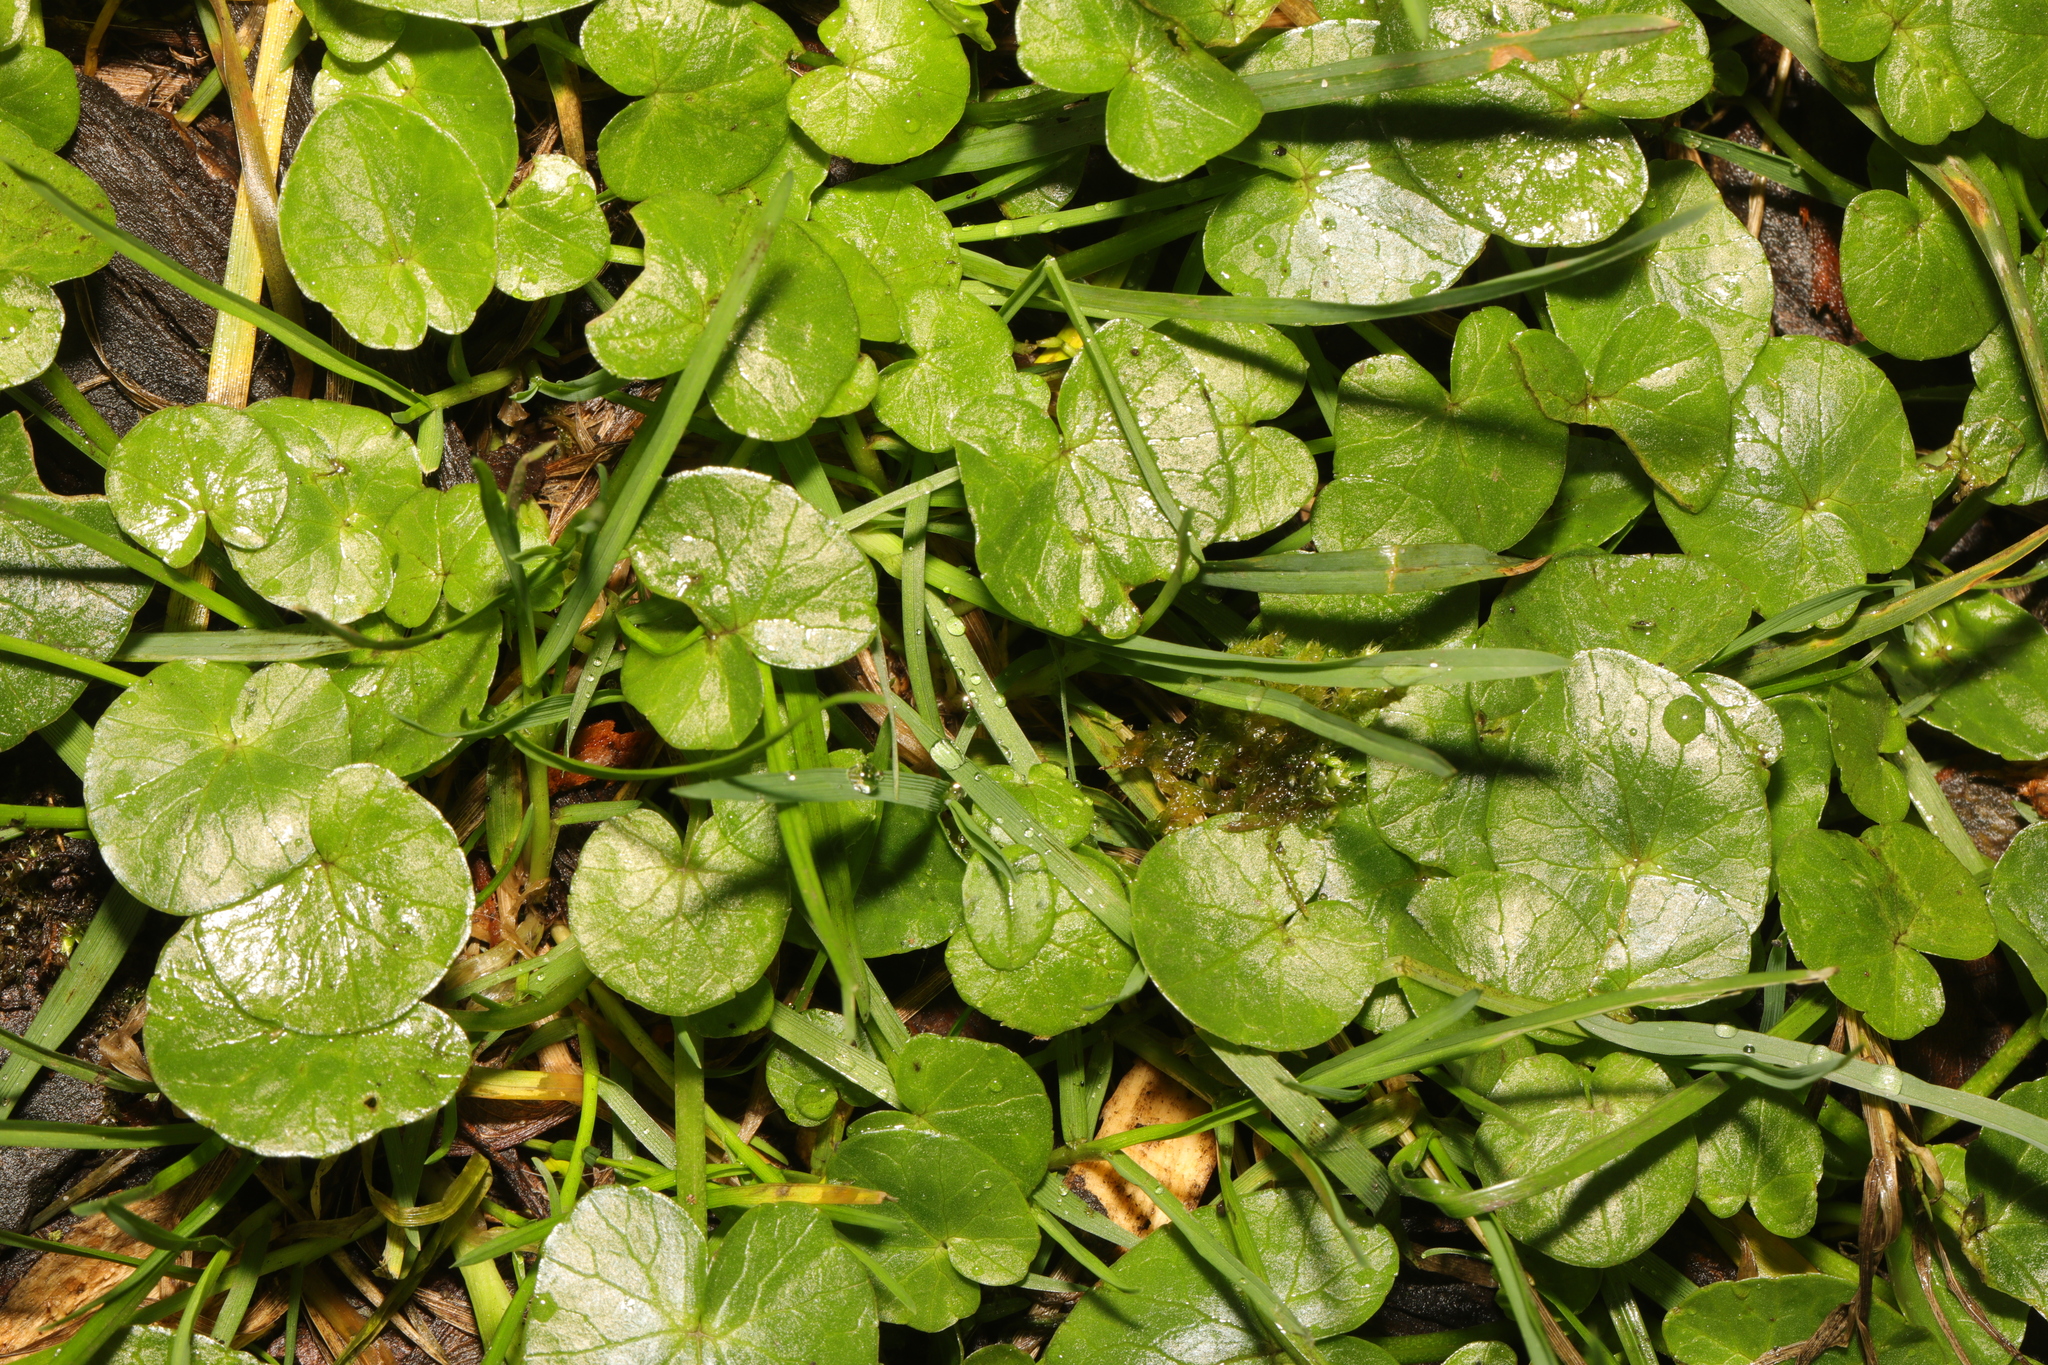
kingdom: Plantae
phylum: Tracheophyta
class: Magnoliopsida
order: Ranunculales
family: Ranunculaceae
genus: Ficaria
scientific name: Ficaria verna
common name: Lesser celandine
